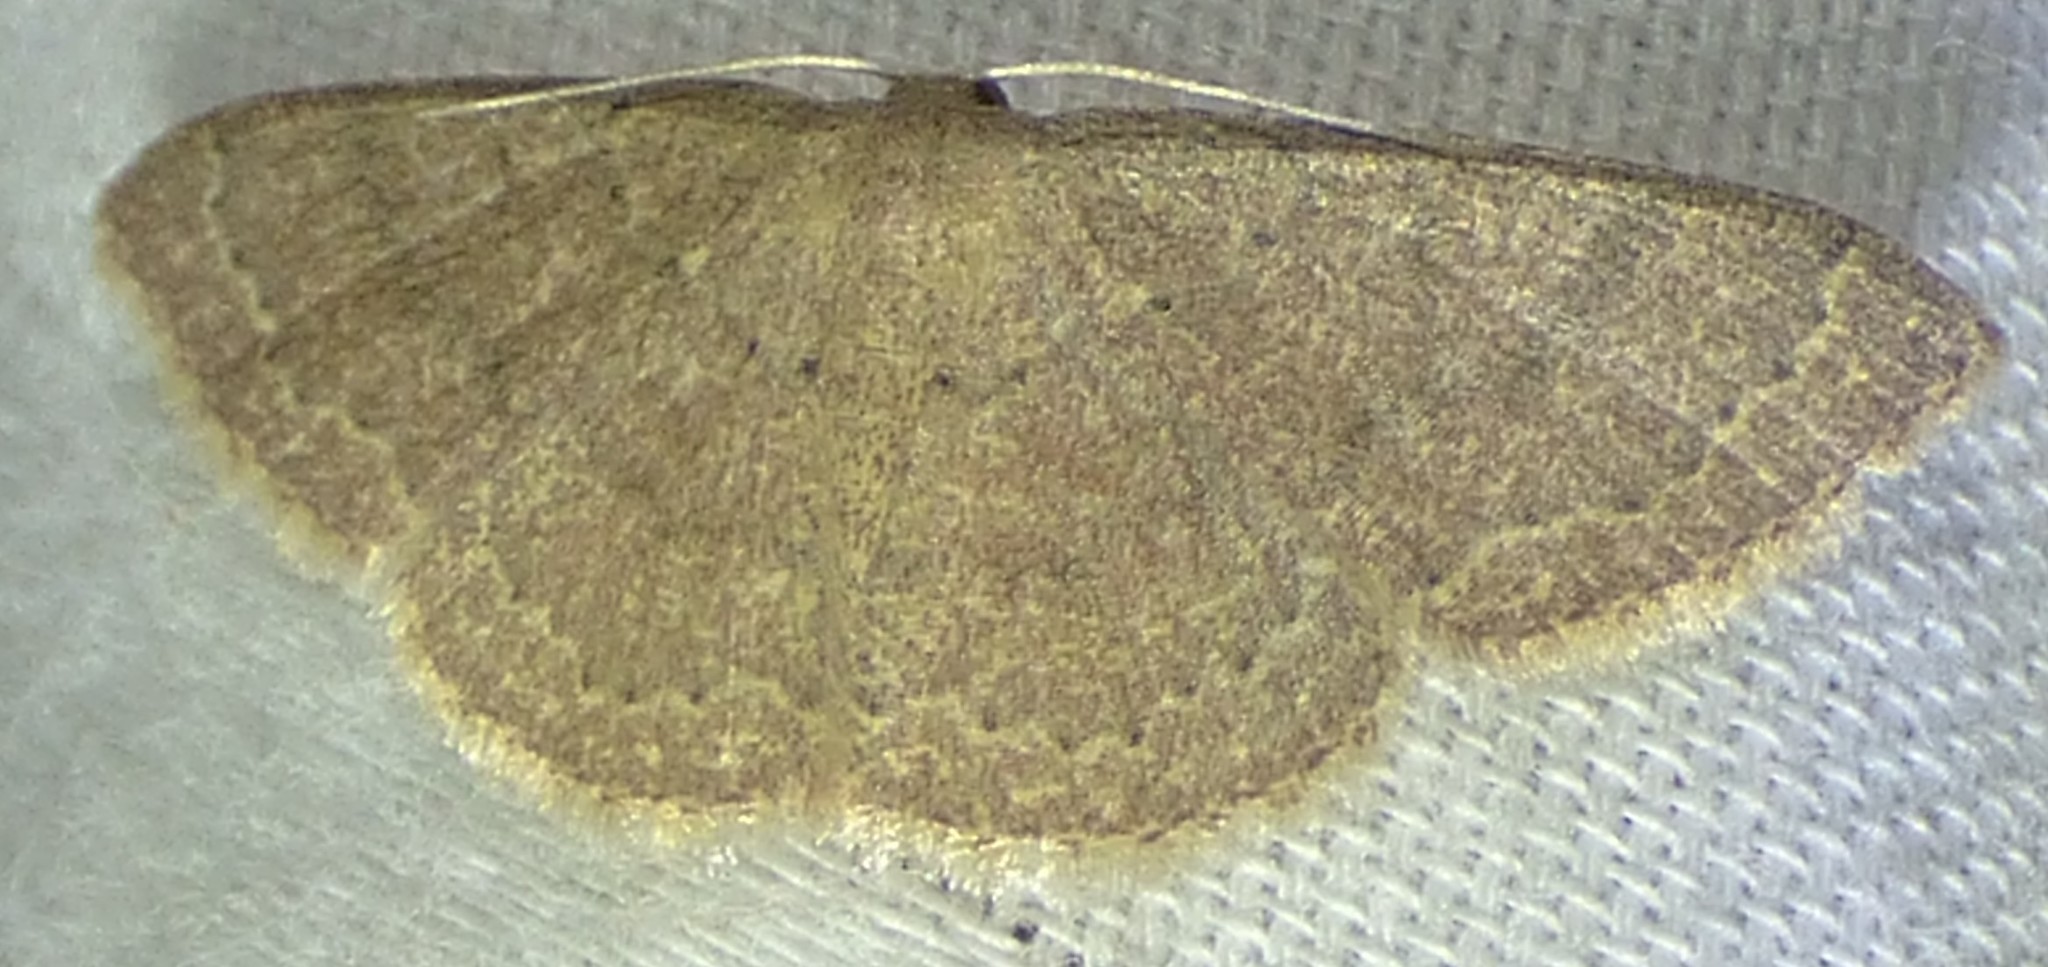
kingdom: Animalia
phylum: Arthropoda
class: Insecta
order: Lepidoptera
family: Geometridae
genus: Pleuroprucha
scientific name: Pleuroprucha insulsaria
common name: Common tan wave
